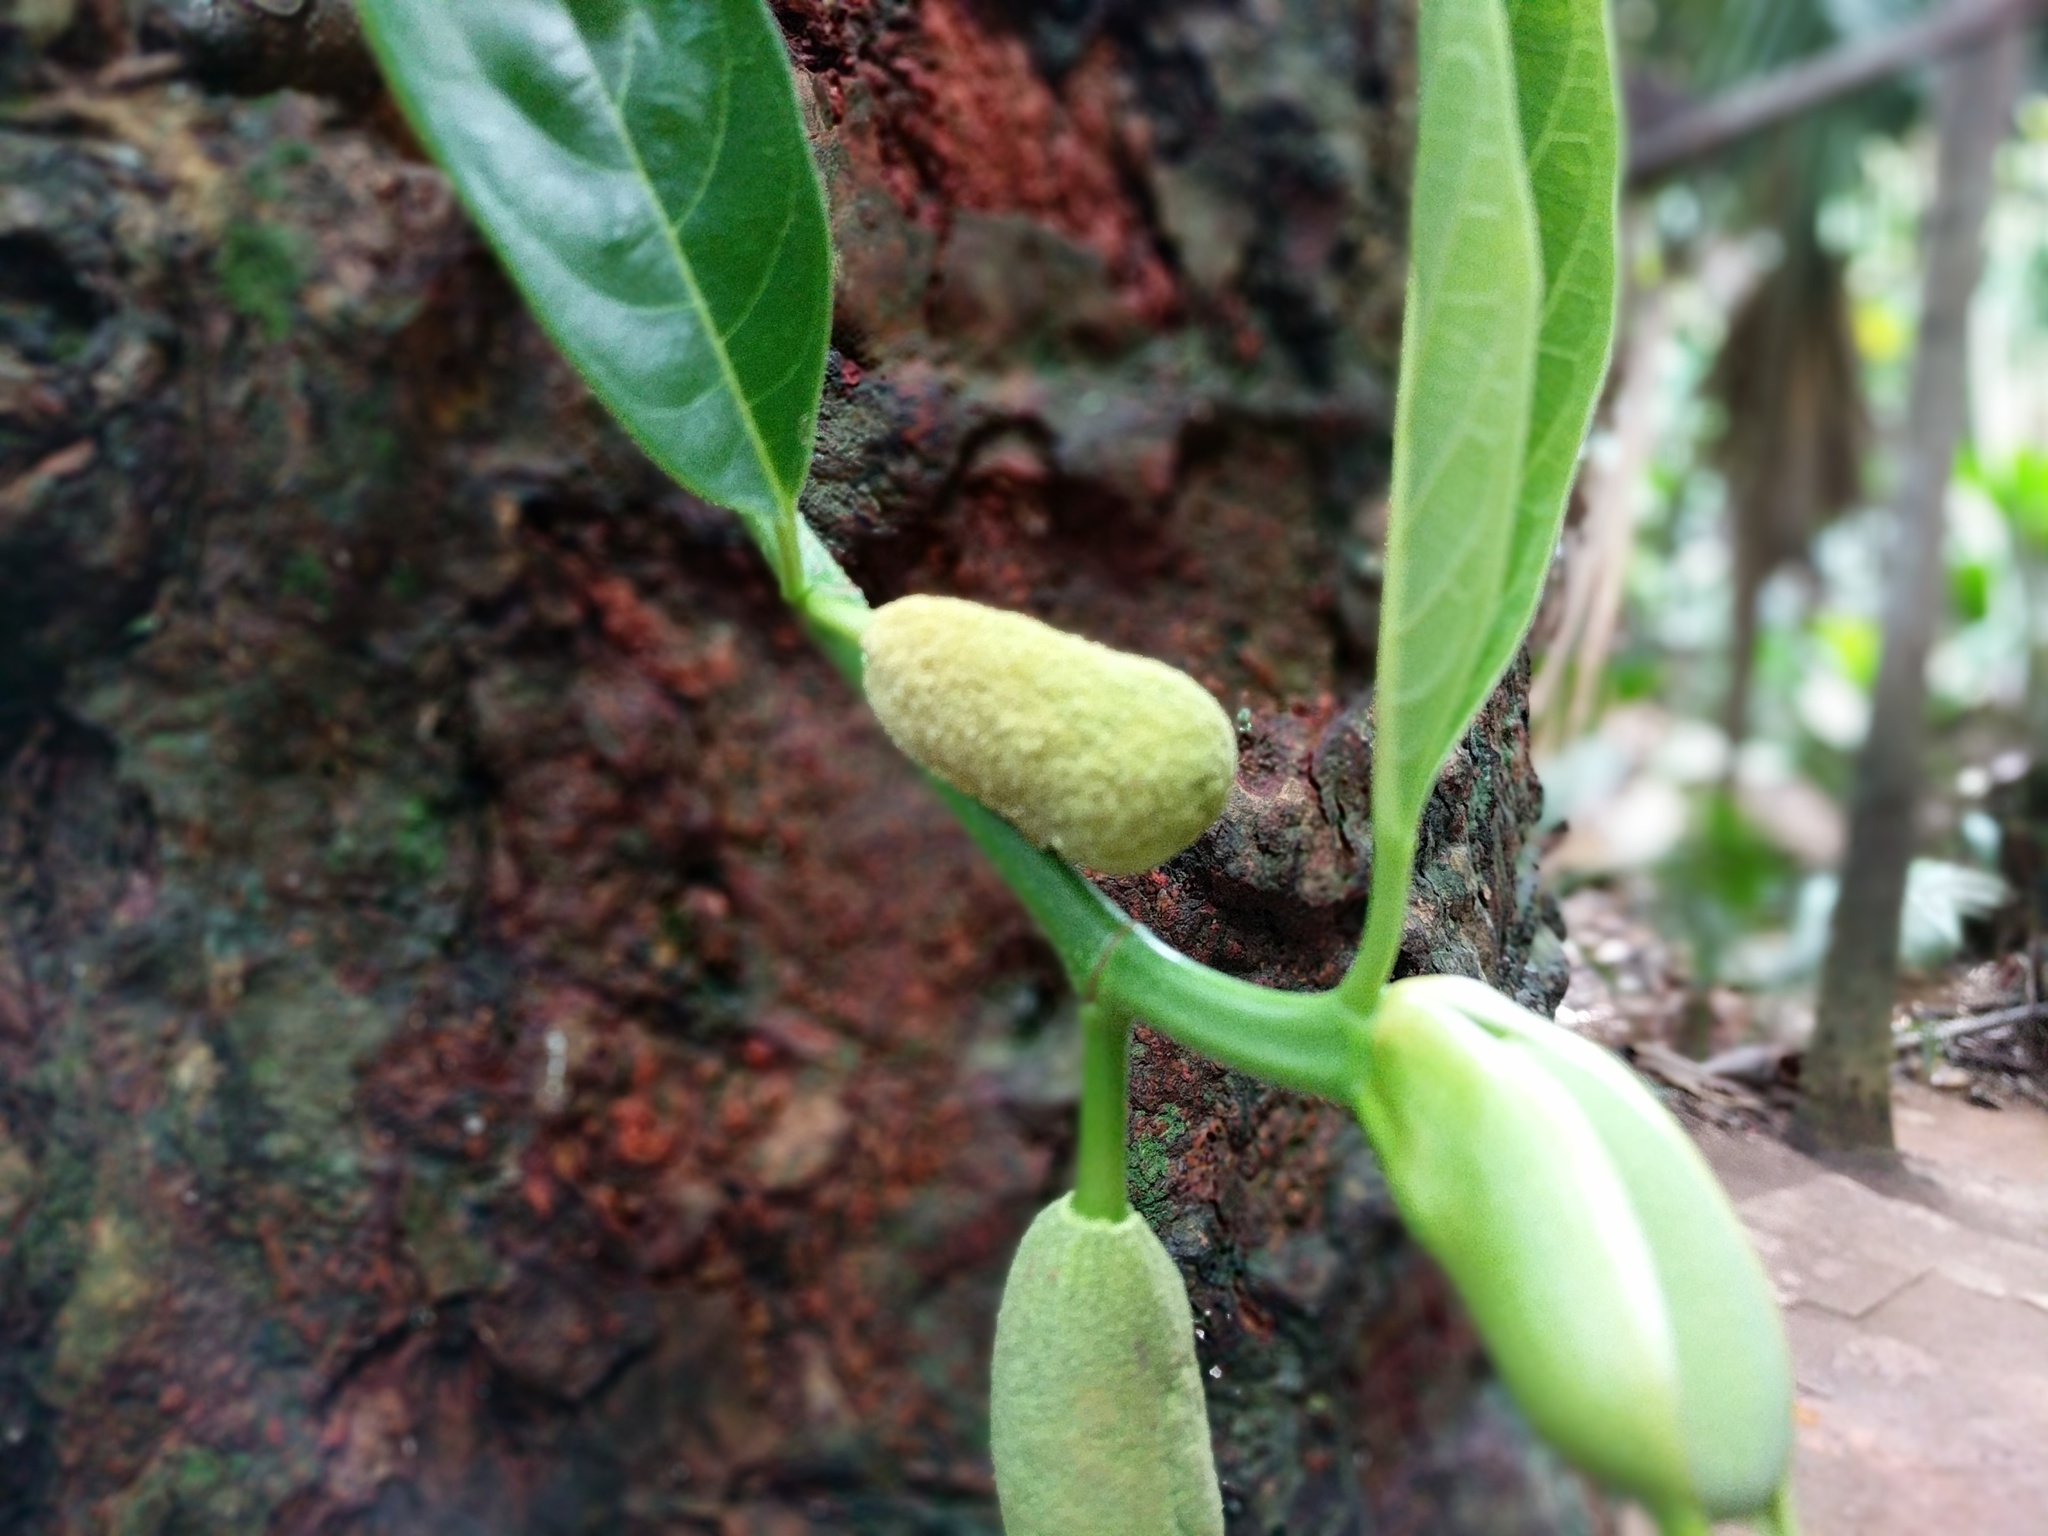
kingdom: Plantae
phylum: Tracheophyta
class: Magnoliopsida
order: Rosales
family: Moraceae
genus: Artocarpus
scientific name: Artocarpus heterophyllus
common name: Jackfruit
